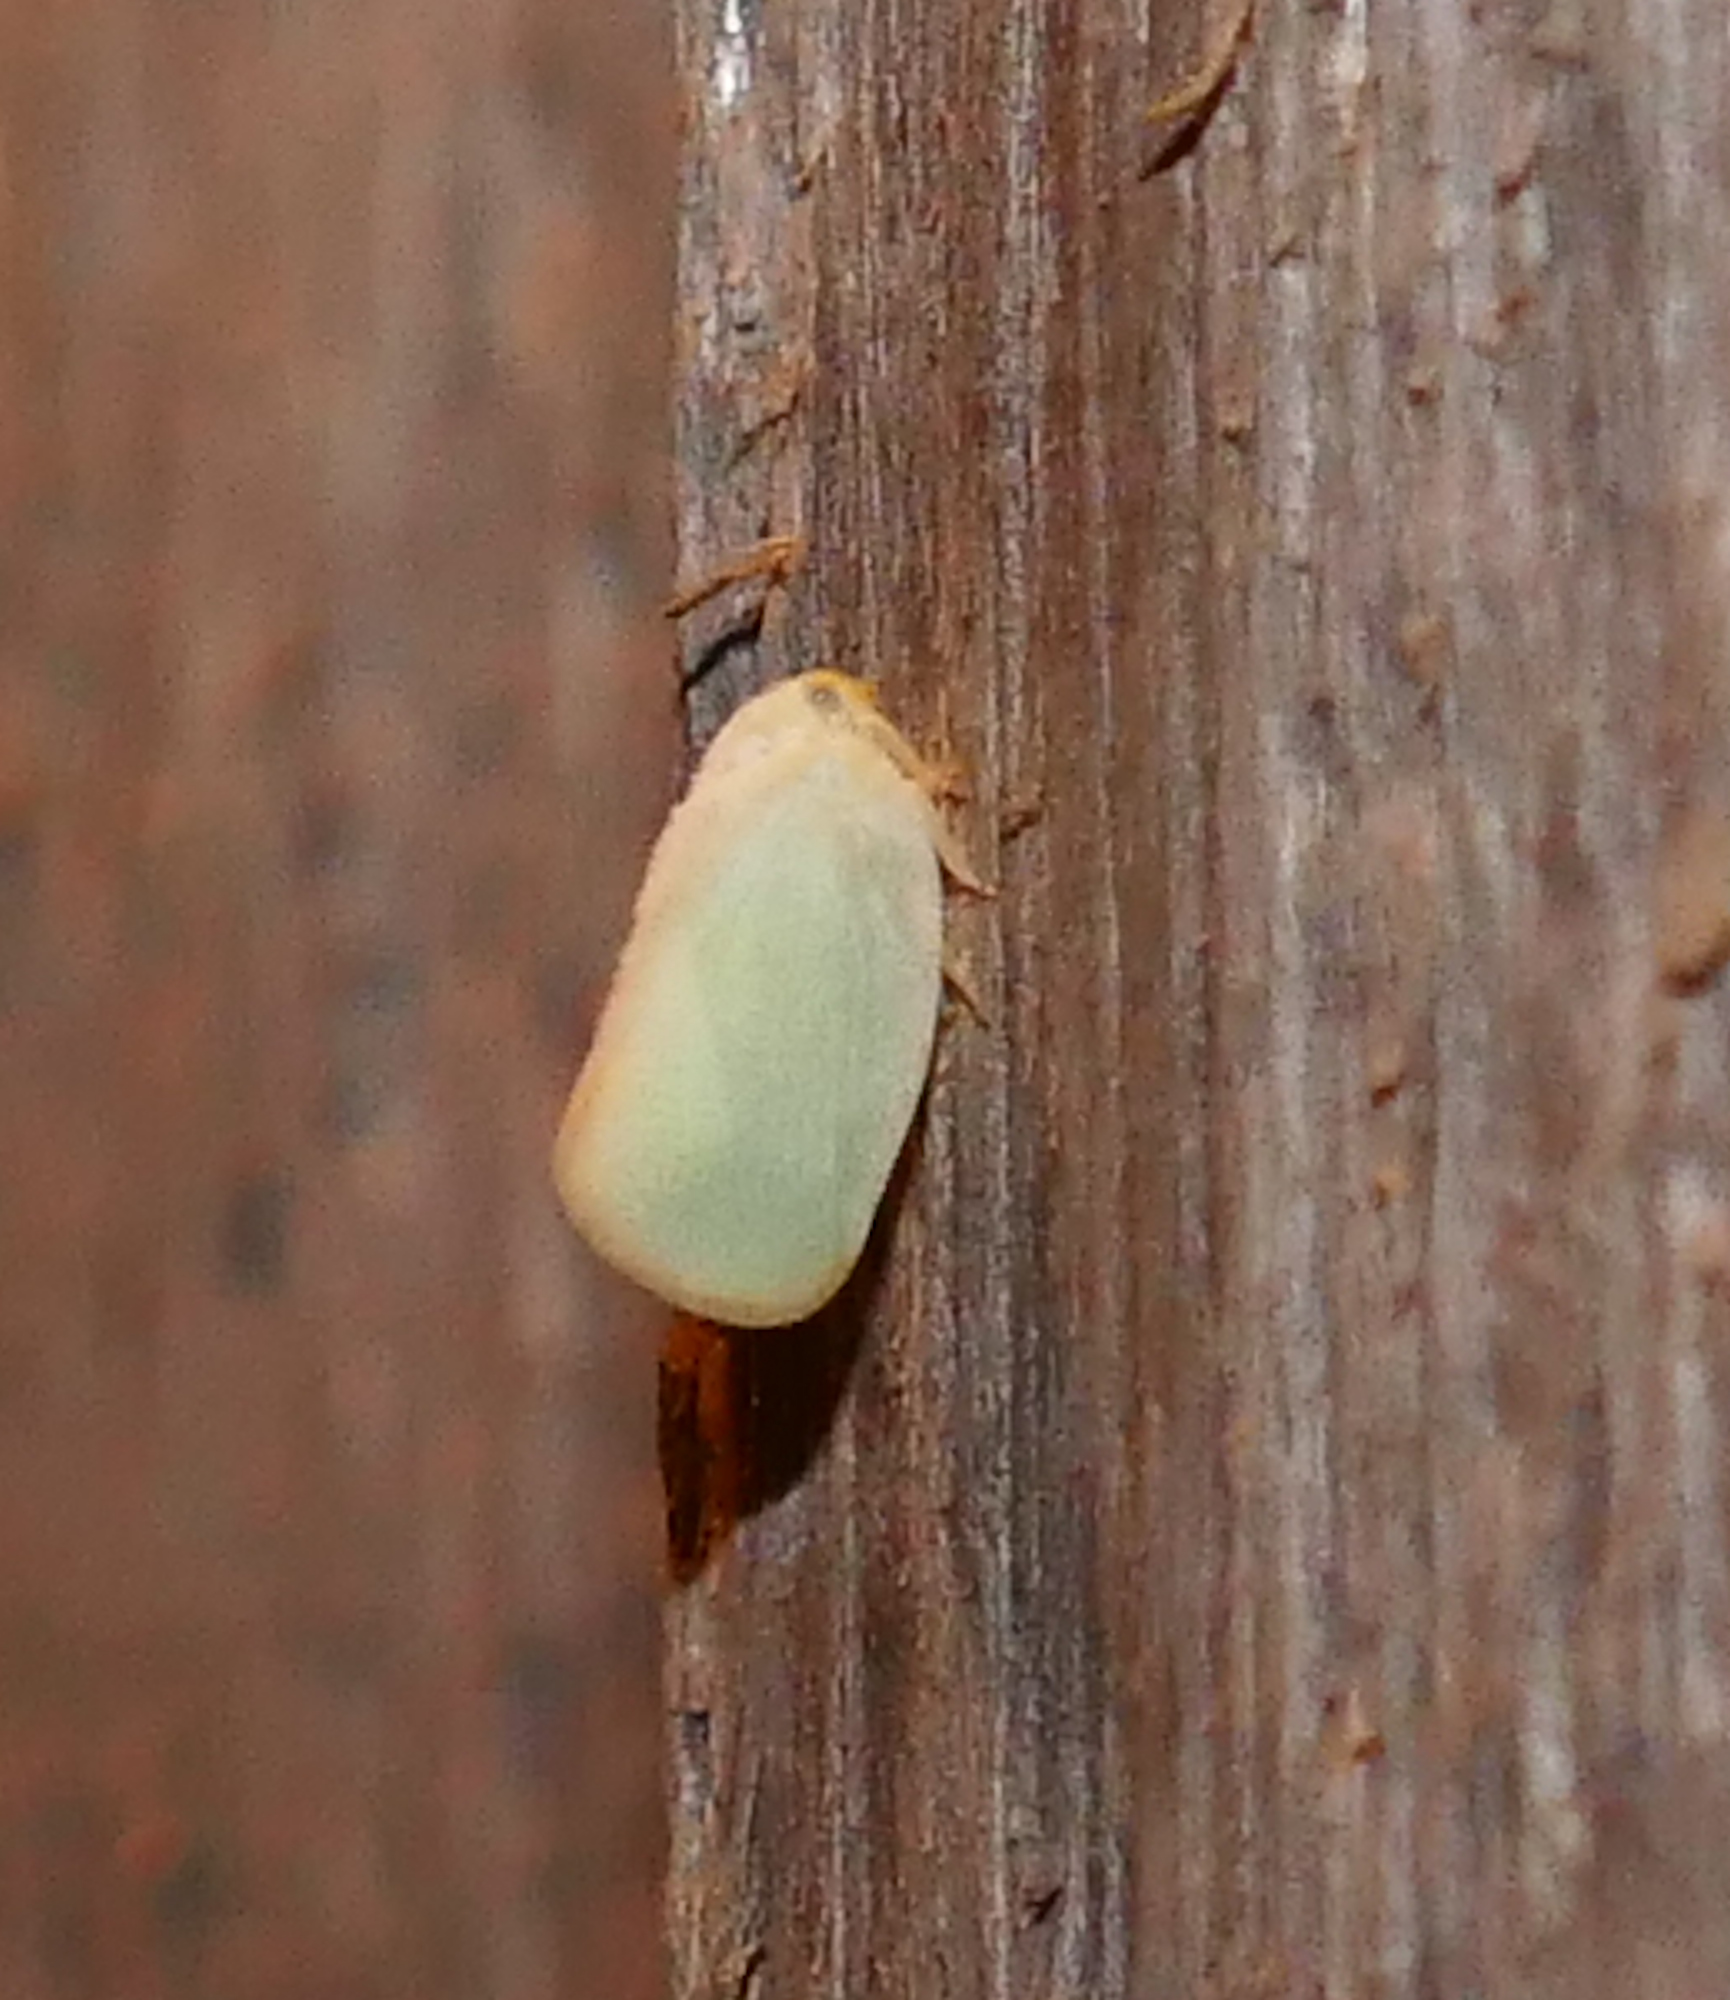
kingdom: Animalia
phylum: Arthropoda
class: Insecta
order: Hemiptera
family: Flatidae
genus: Ormenoides
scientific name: Ormenoides venusta
